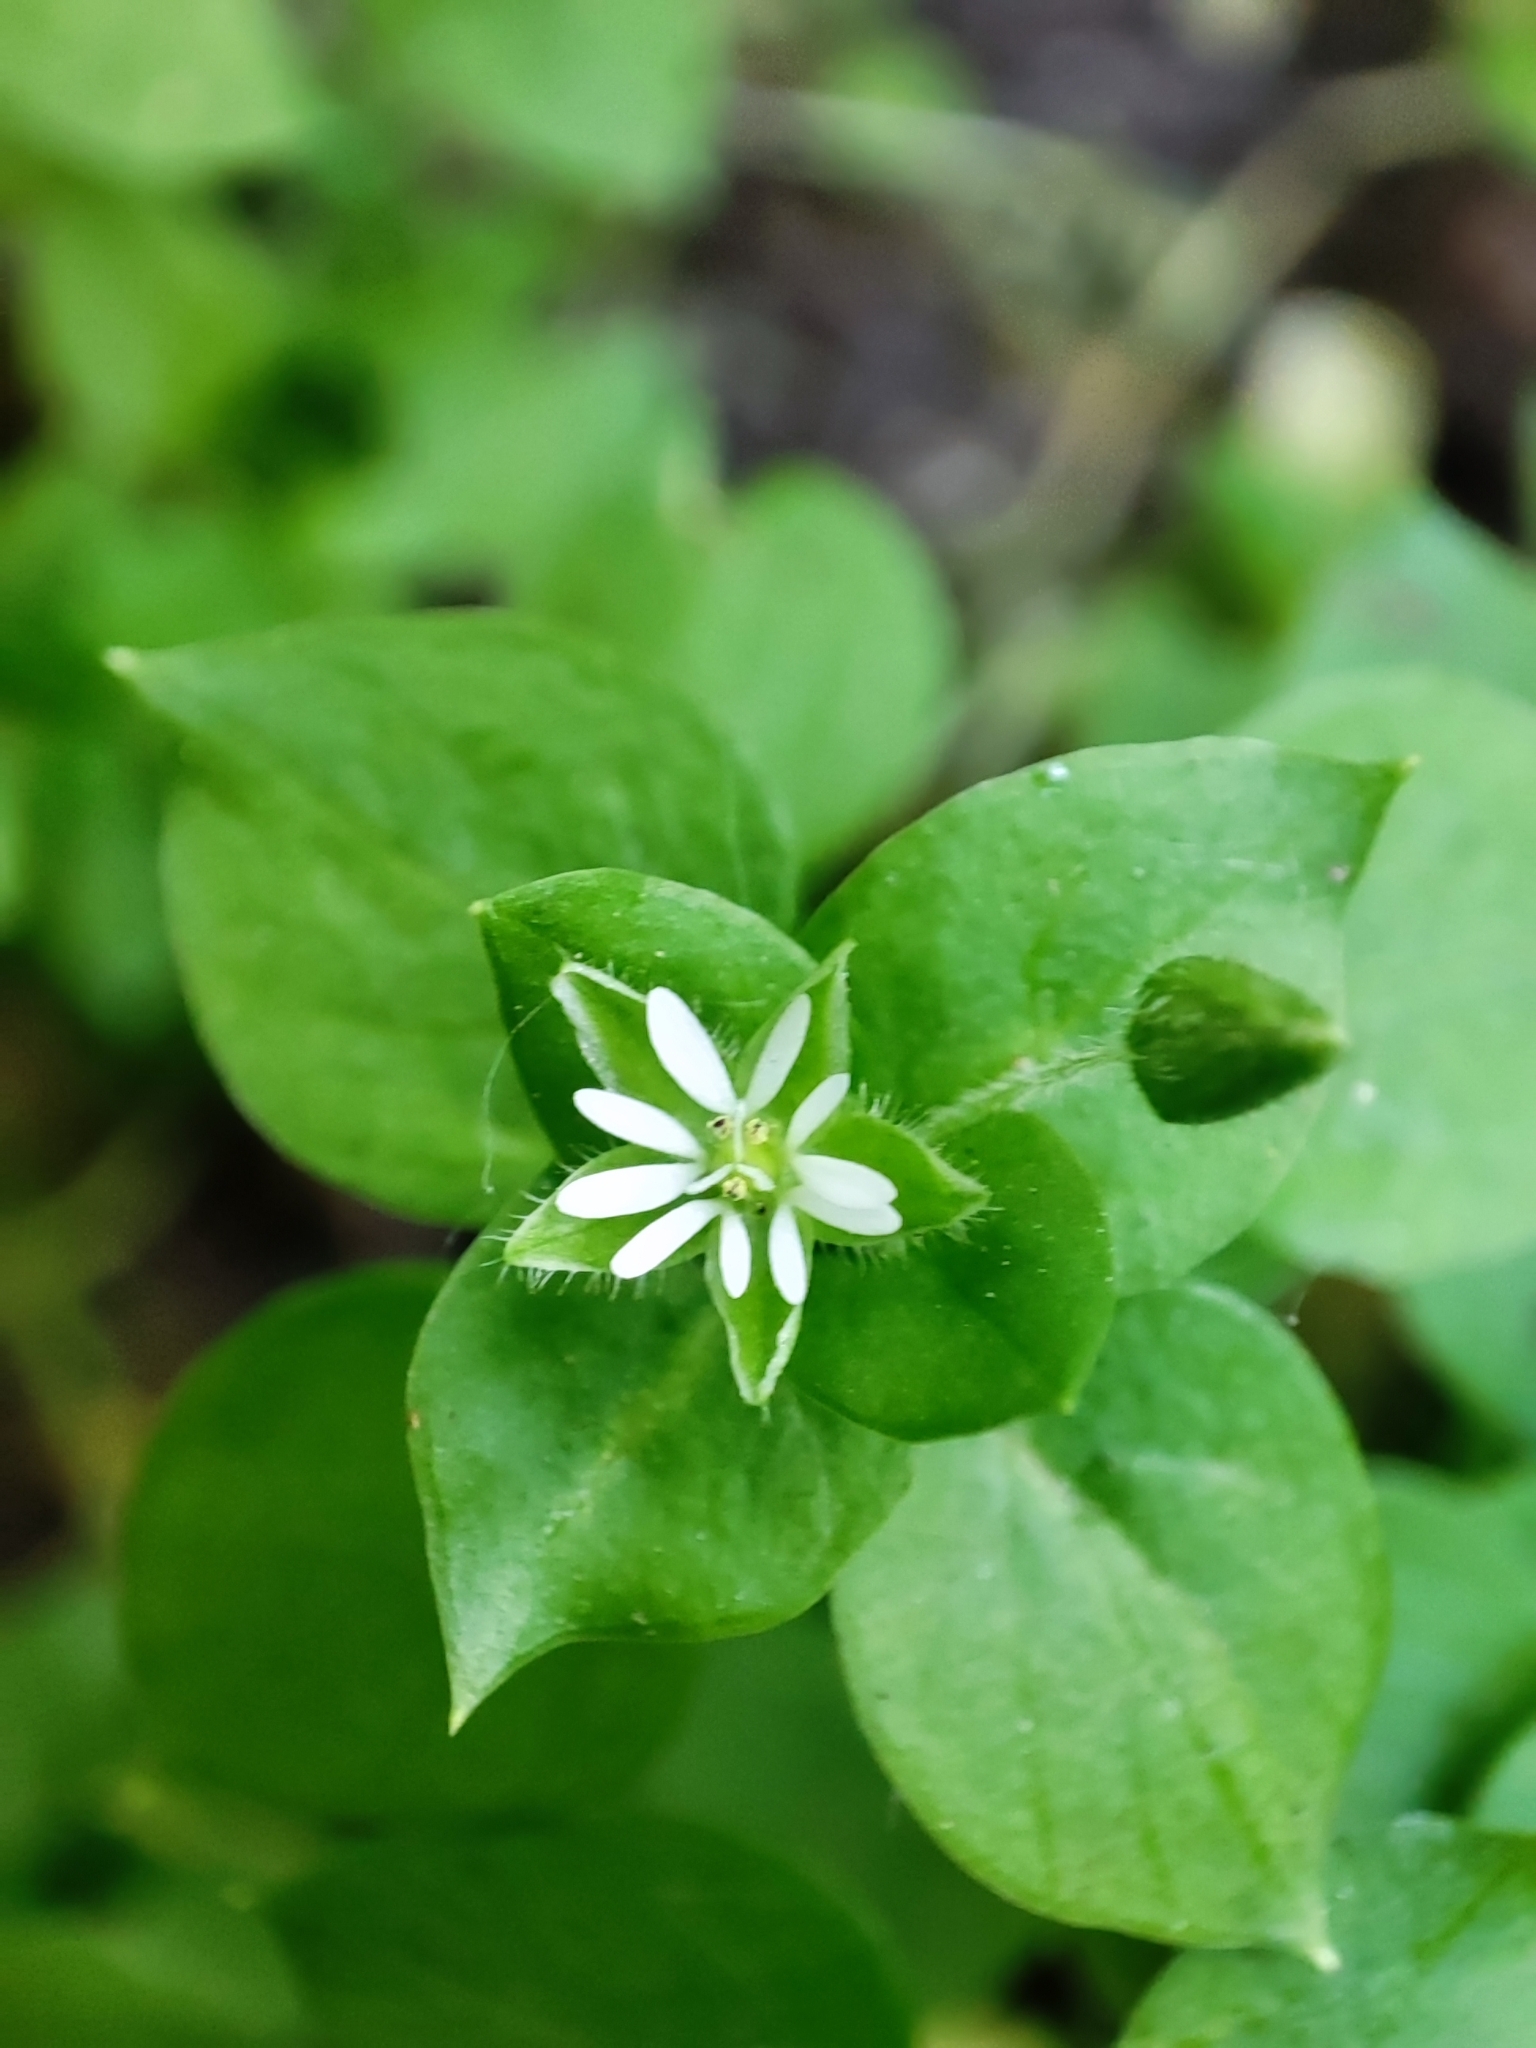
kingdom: Plantae
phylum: Tracheophyta
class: Magnoliopsida
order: Caryophyllales
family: Caryophyllaceae
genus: Stellaria
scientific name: Stellaria media
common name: Common chickweed
